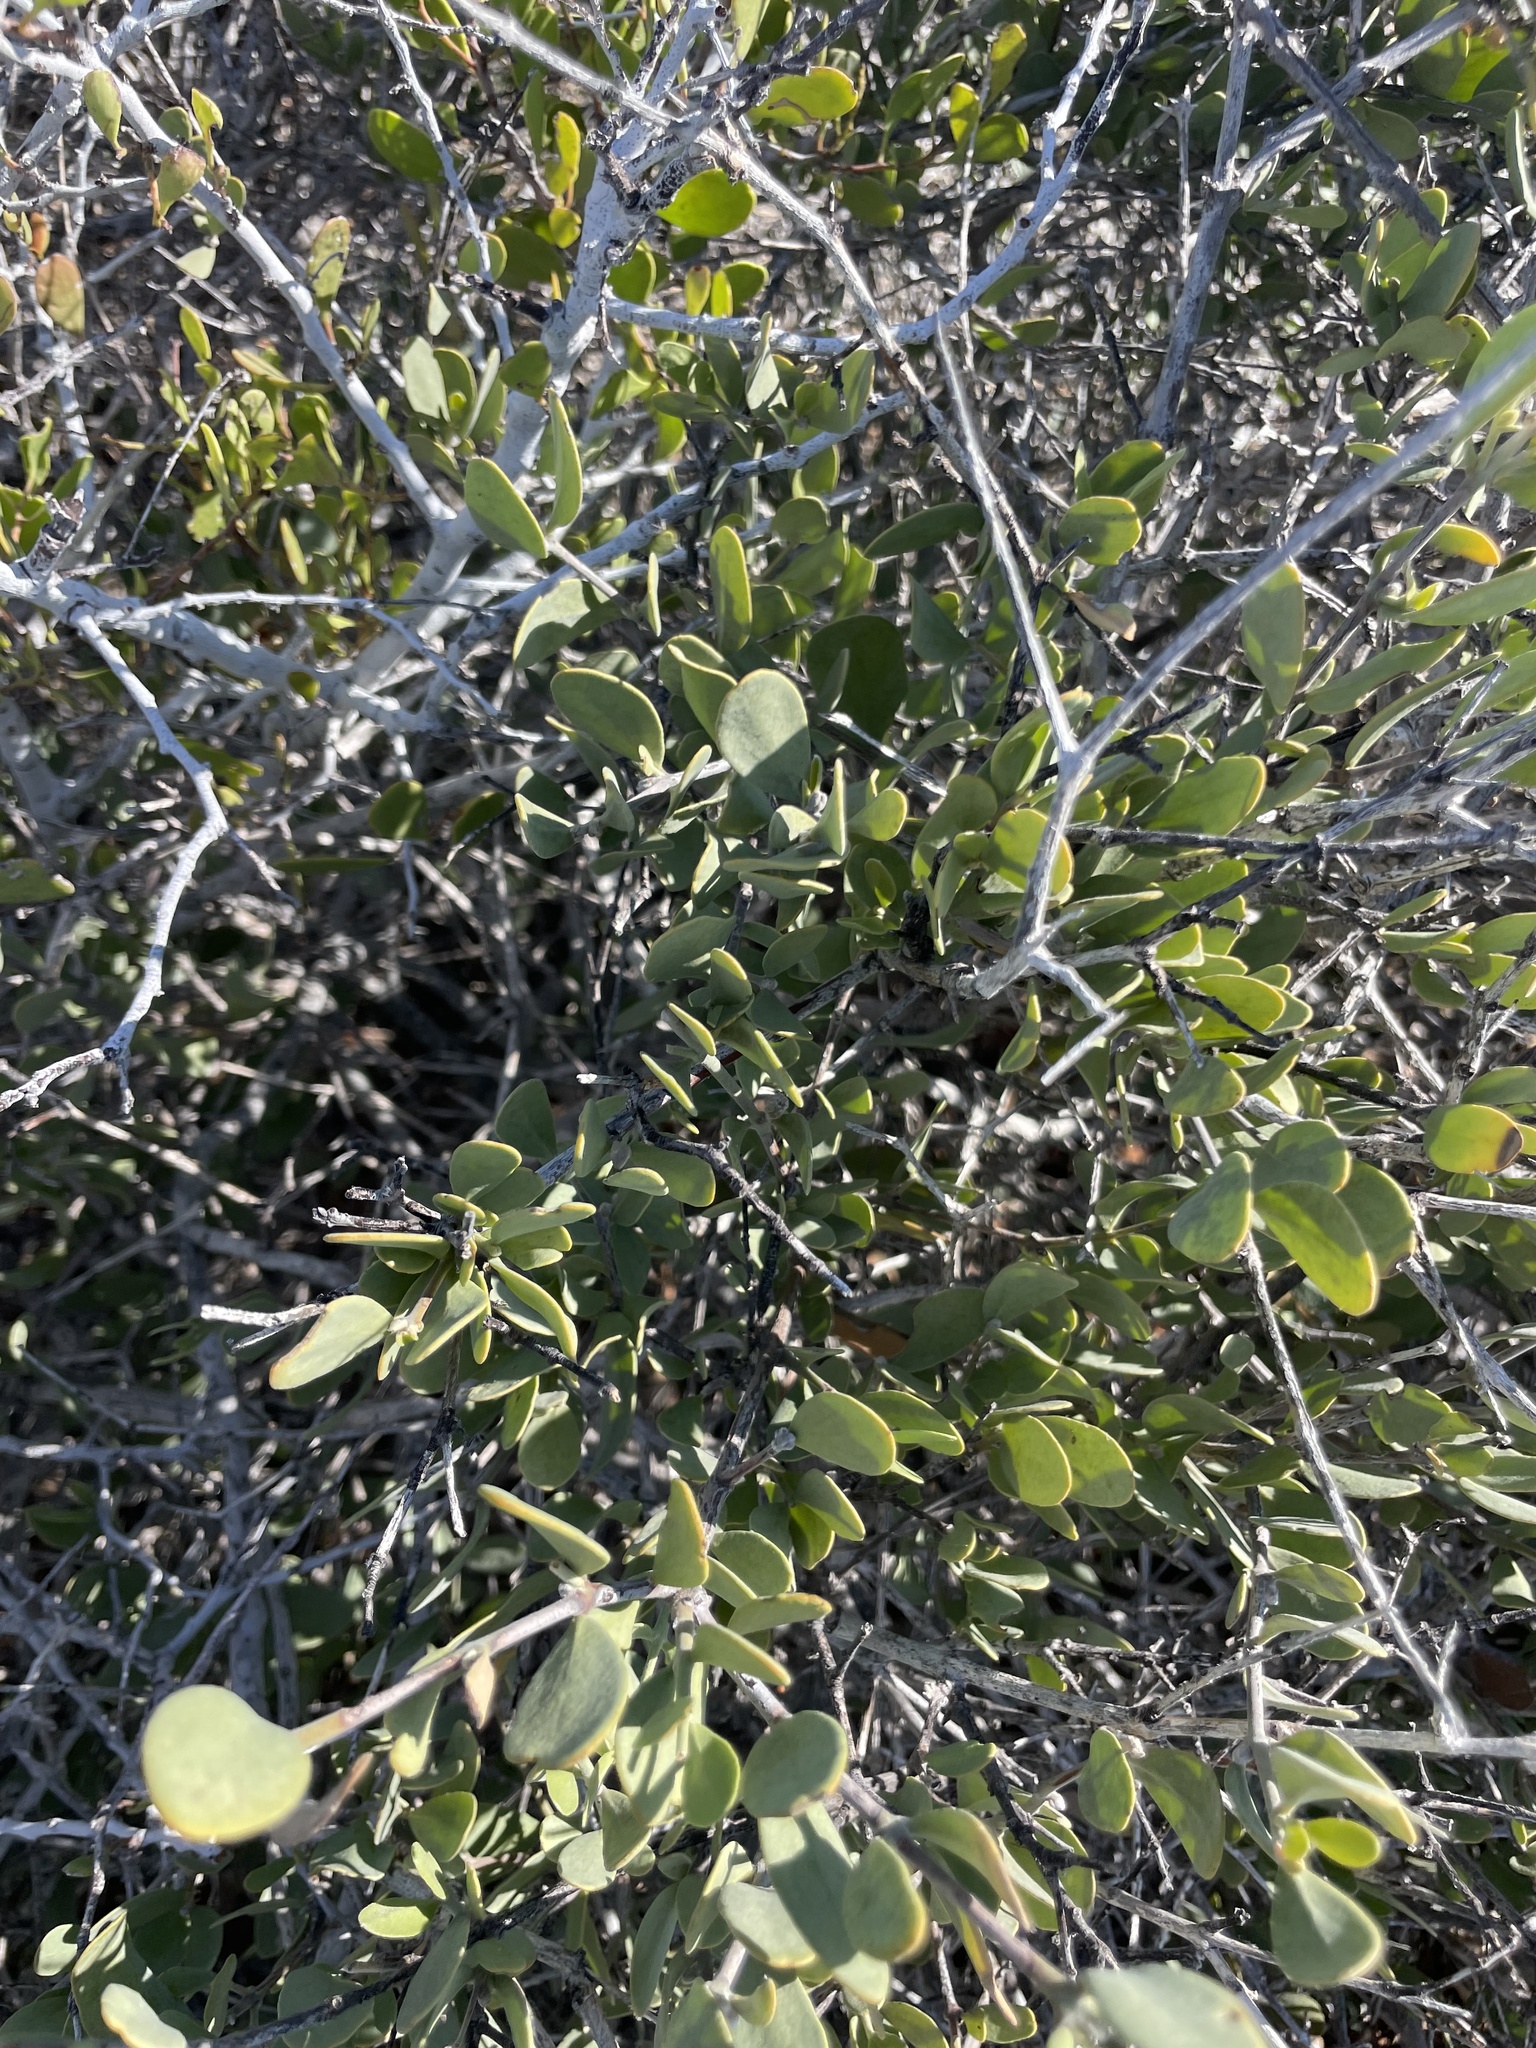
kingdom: Plantae
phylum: Tracheophyta
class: Magnoliopsida
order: Caryophyllales
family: Simmondsiaceae
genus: Simmondsia
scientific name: Simmondsia chinensis
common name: Jojoba
